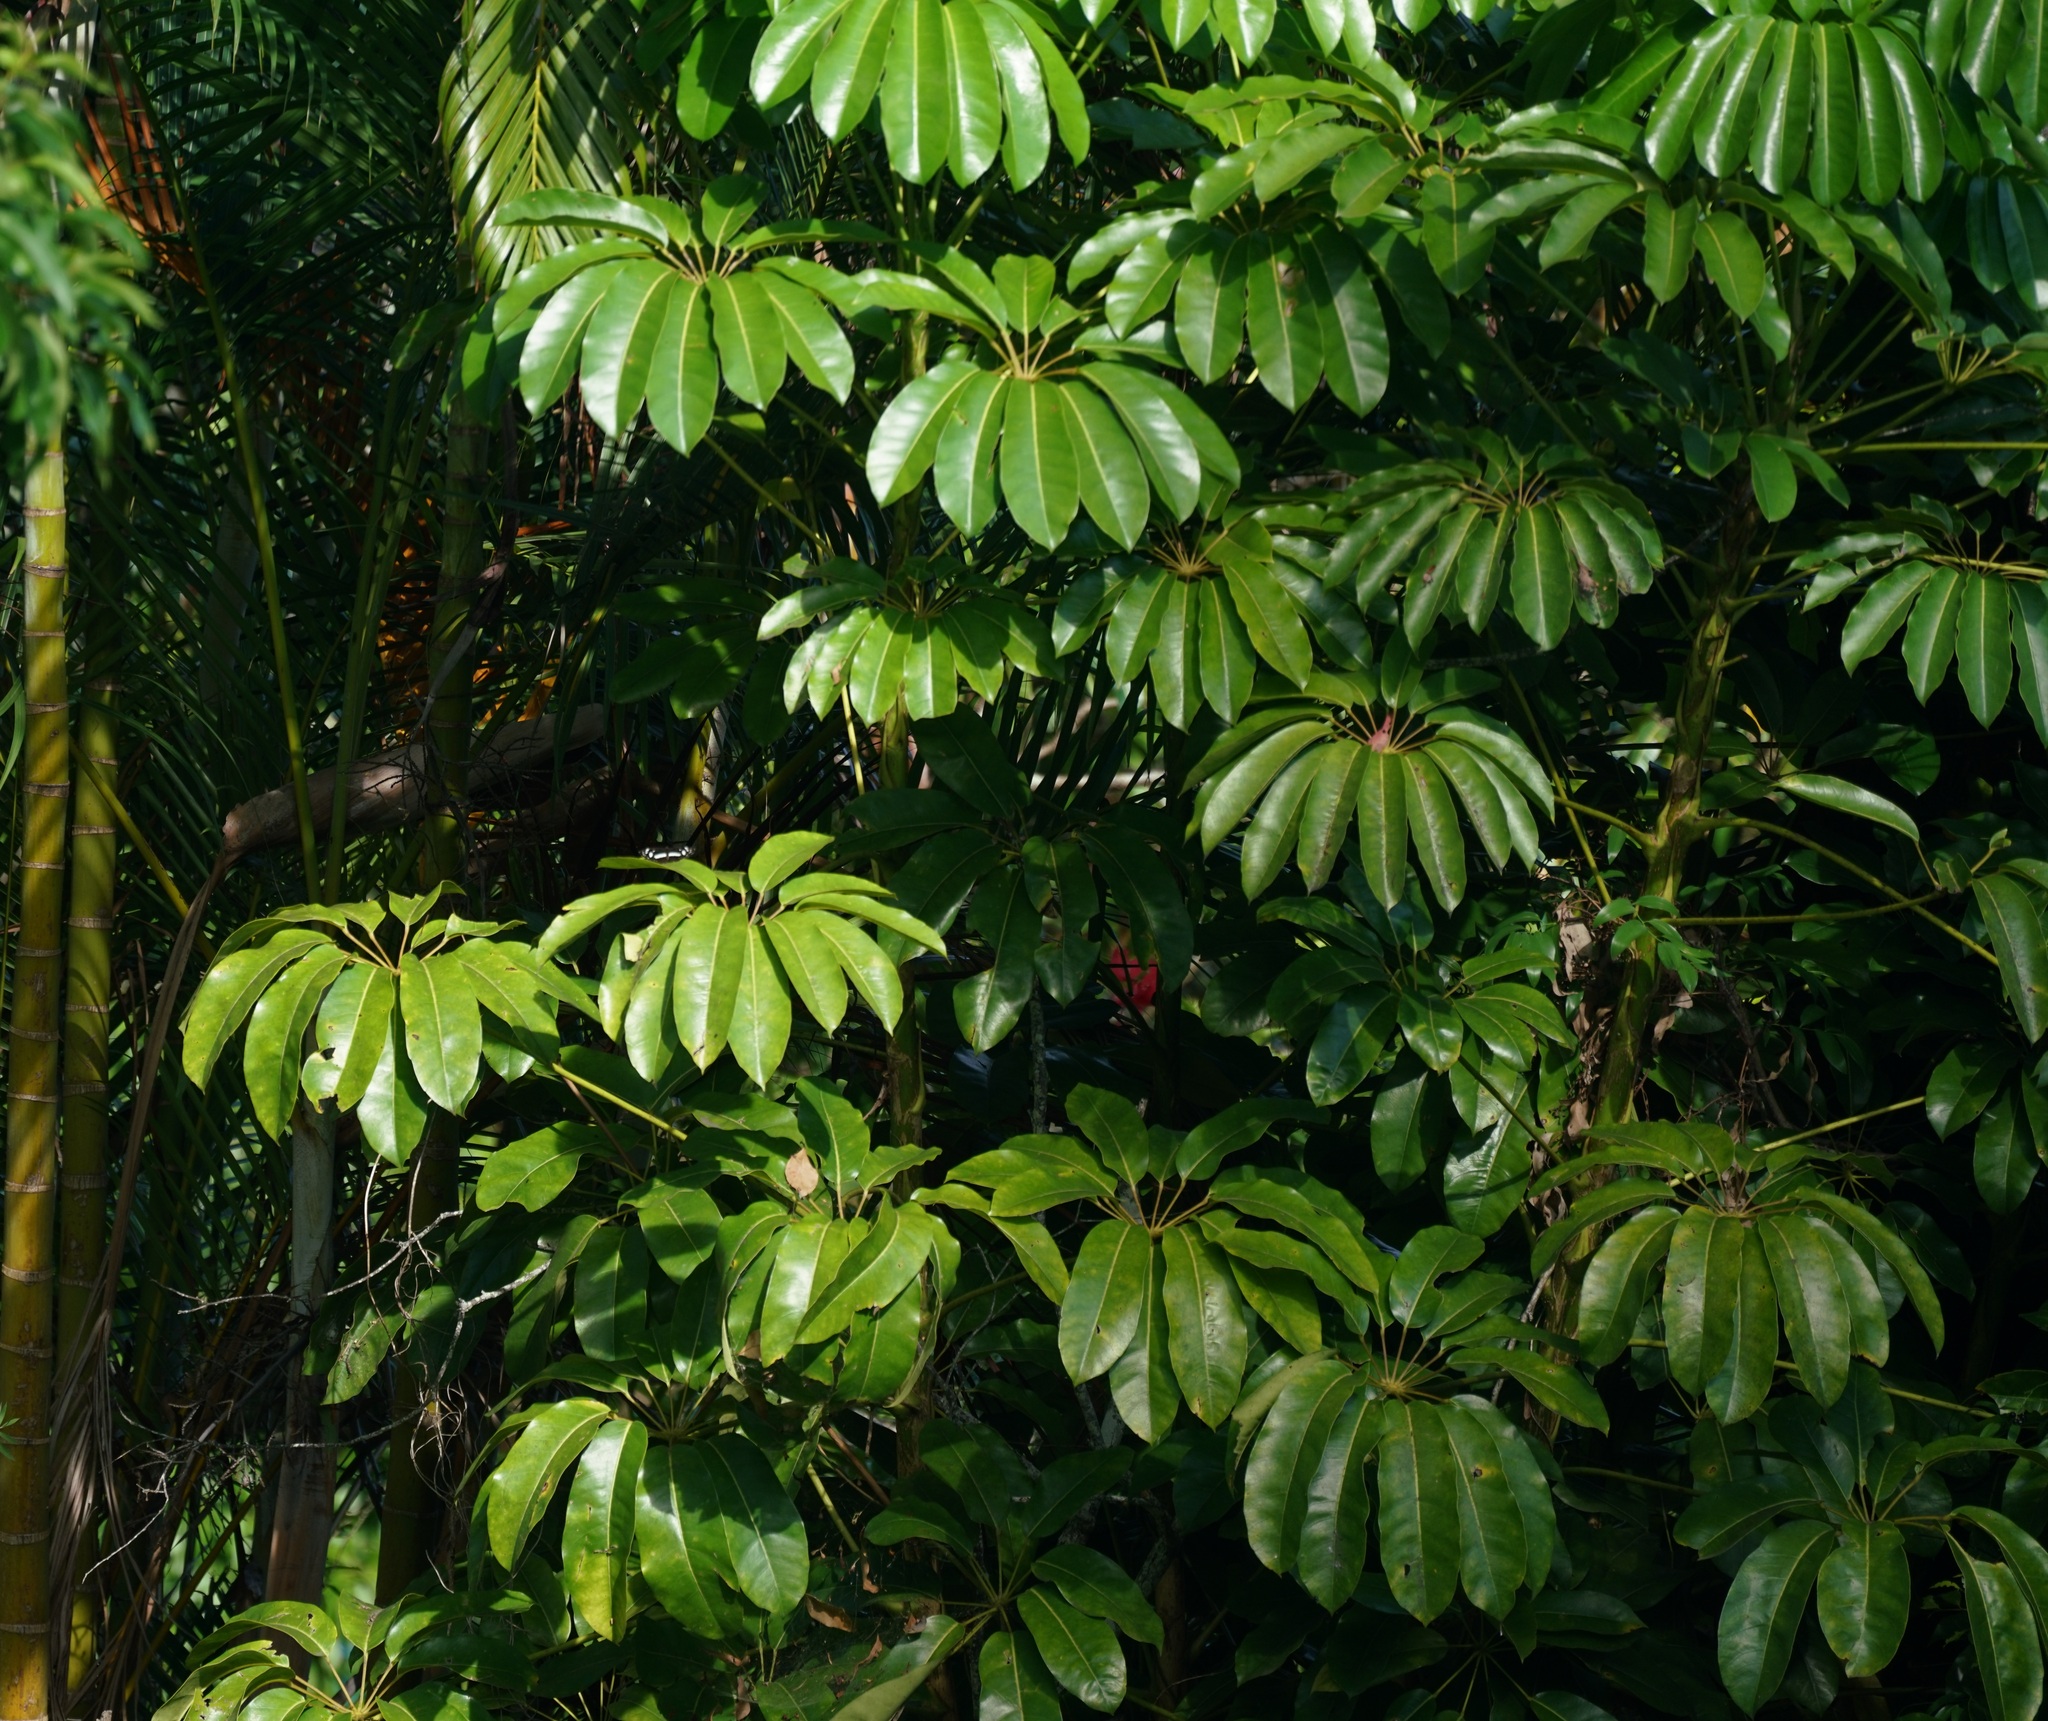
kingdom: Plantae
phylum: Tracheophyta
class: Magnoliopsida
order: Apiales
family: Araliaceae
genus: Heptapleurum
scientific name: Heptapleurum actinophyllum
